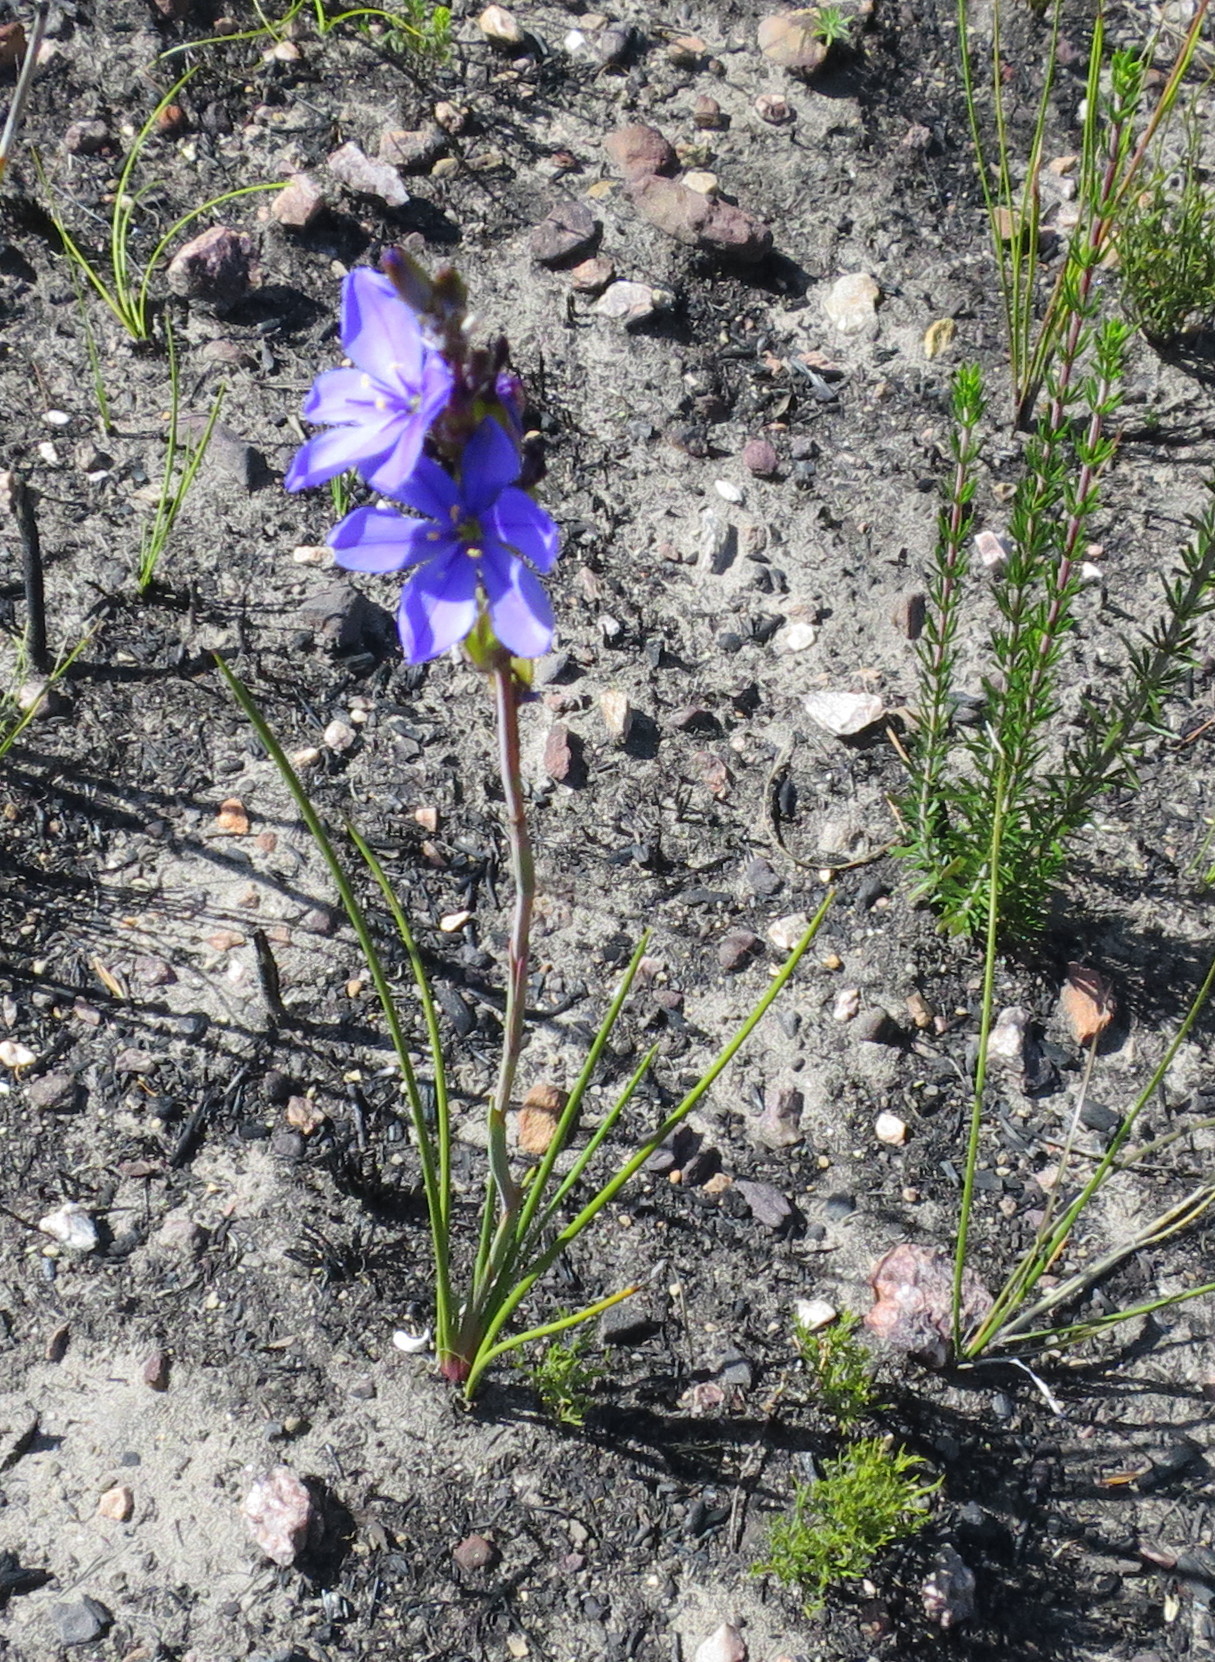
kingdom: Plantae
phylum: Tracheophyta
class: Liliopsida
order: Asparagales
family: Iridaceae
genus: Aristea
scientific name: Aristea africana
